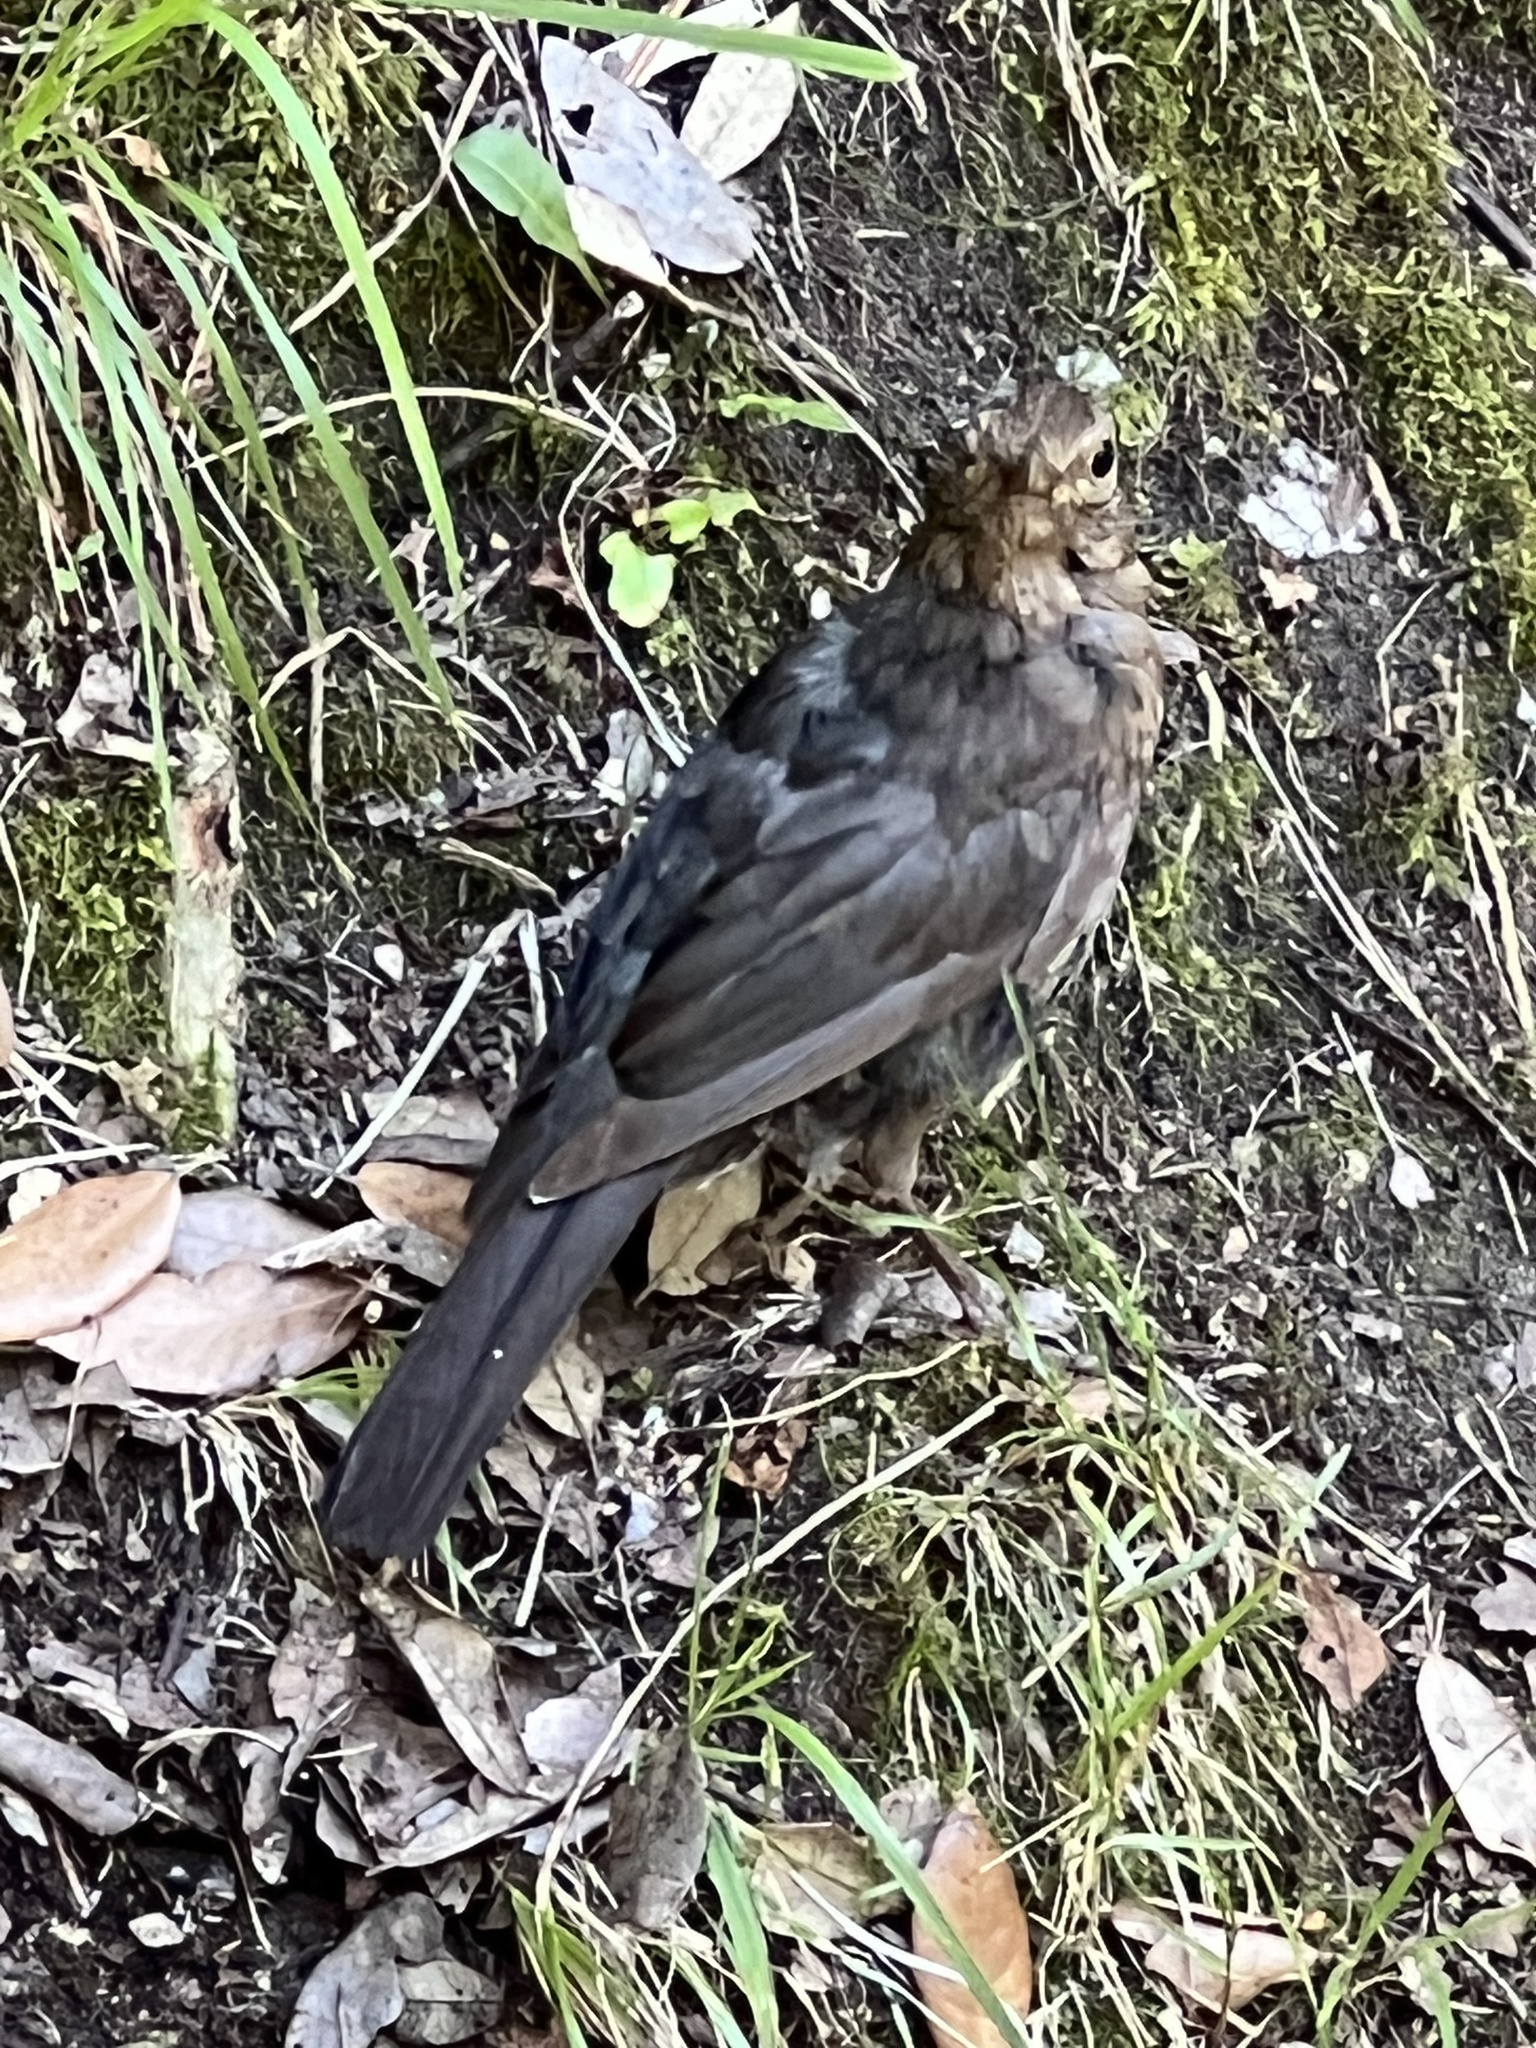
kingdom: Animalia
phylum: Chordata
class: Aves
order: Passeriformes
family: Turdidae
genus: Turdus
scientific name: Turdus merula
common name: Common blackbird
